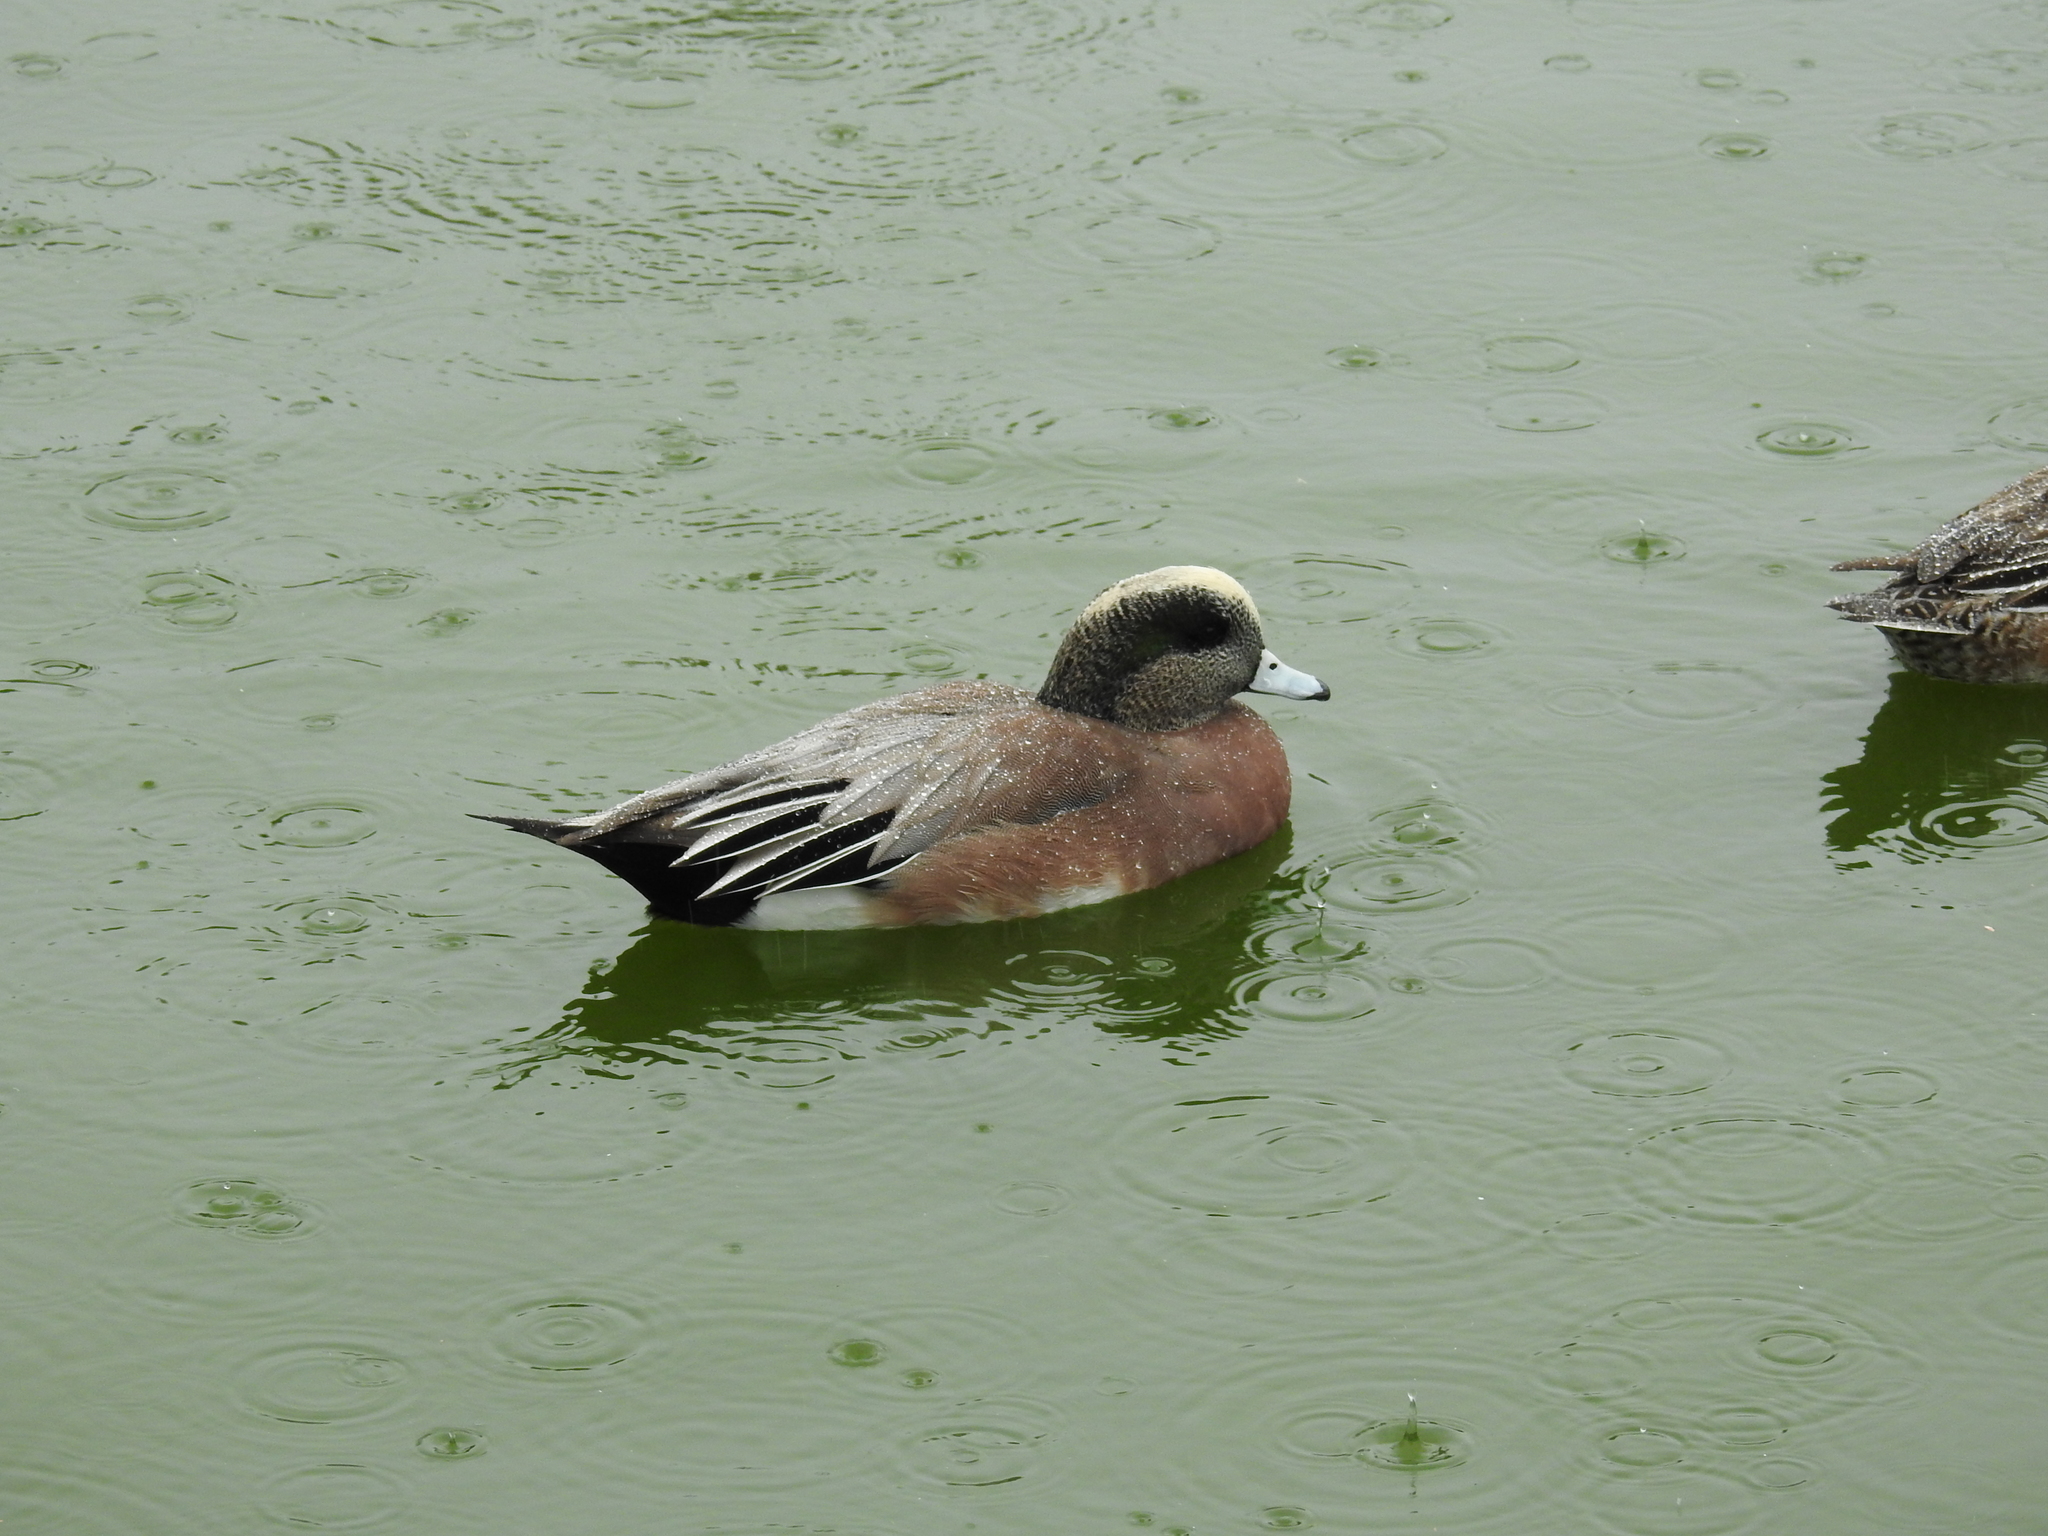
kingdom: Animalia
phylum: Chordata
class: Aves
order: Anseriformes
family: Anatidae
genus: Mareca
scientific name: Mareca americana
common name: American wigeon
